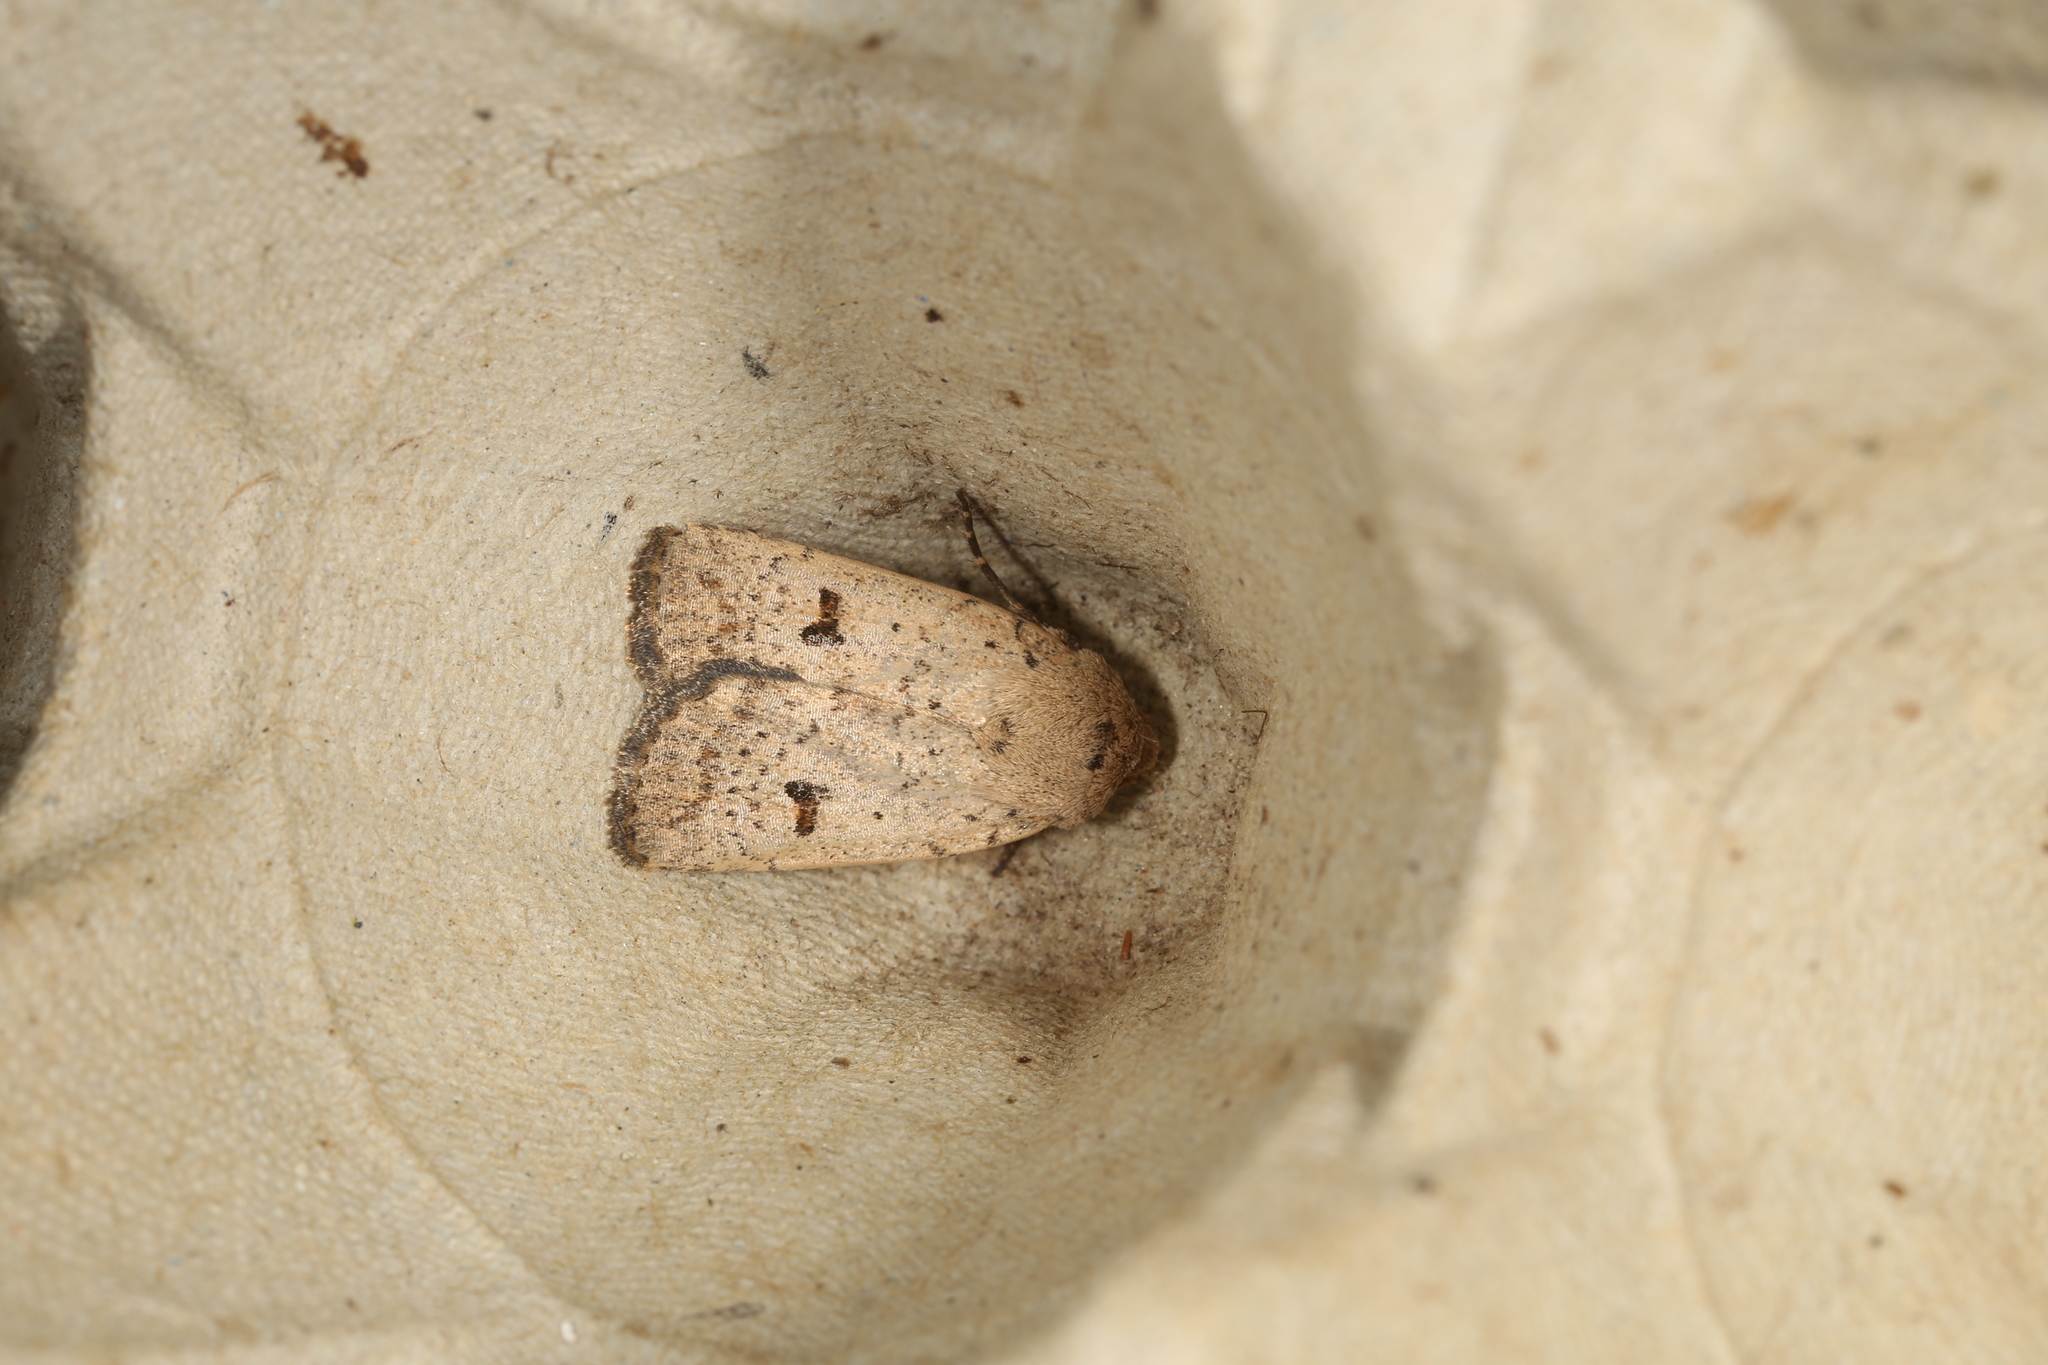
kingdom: Animalia
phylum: Arthropoda
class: Insecta
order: Lepidoptera
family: Noctuidae
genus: Proteuxoa
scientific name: Proteuxoa hypochalchis
